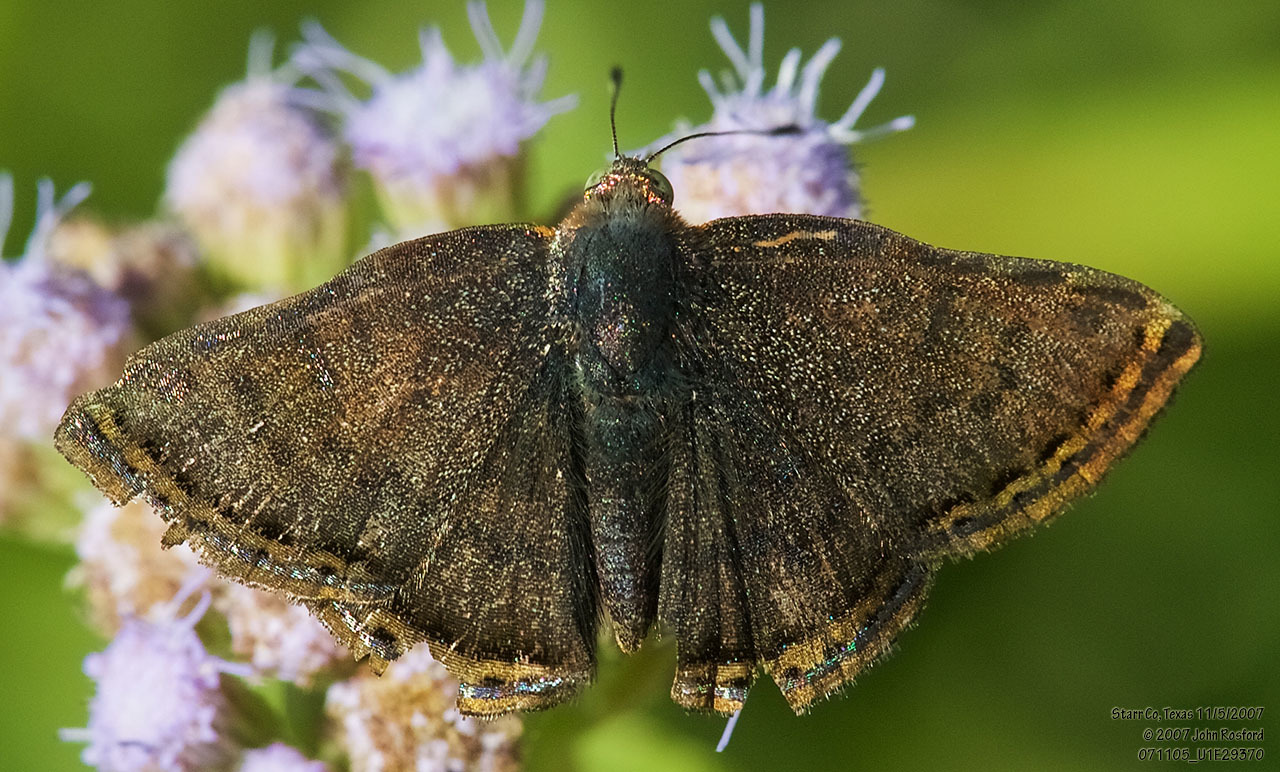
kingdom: Animalia
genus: Caria
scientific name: Caria ino
